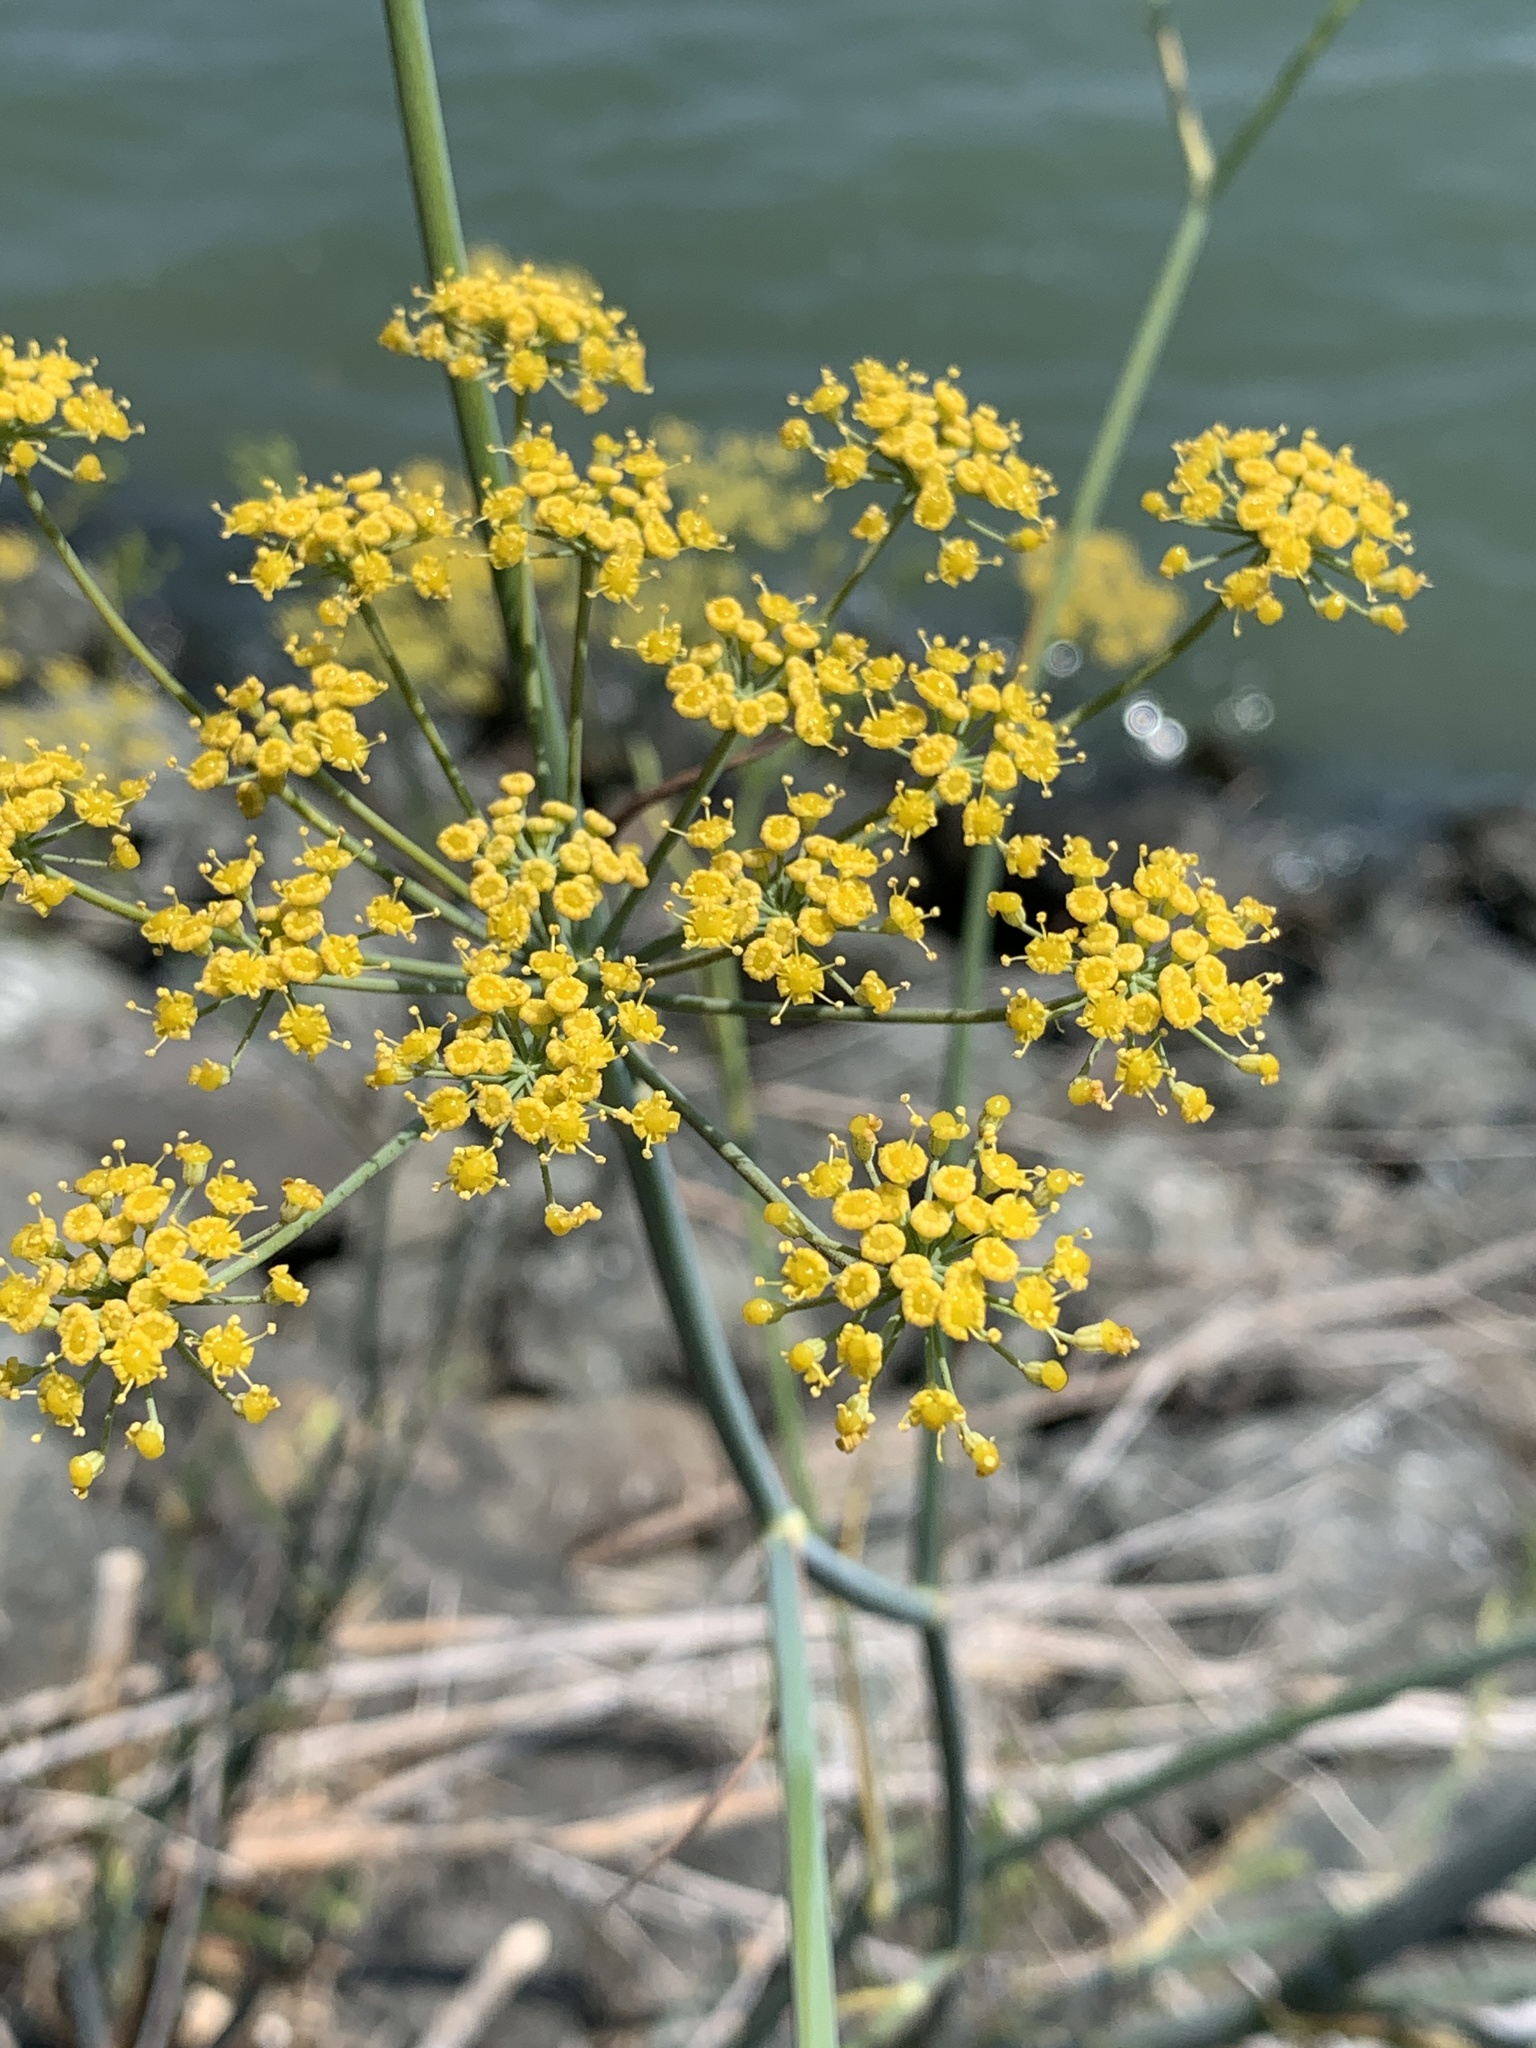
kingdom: Plantae
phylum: Tracheophyta
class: Magnoliopsida
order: Apiales
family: Apiaceae
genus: Foeniculum
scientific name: Foeniculum vulgare
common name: Fennel
